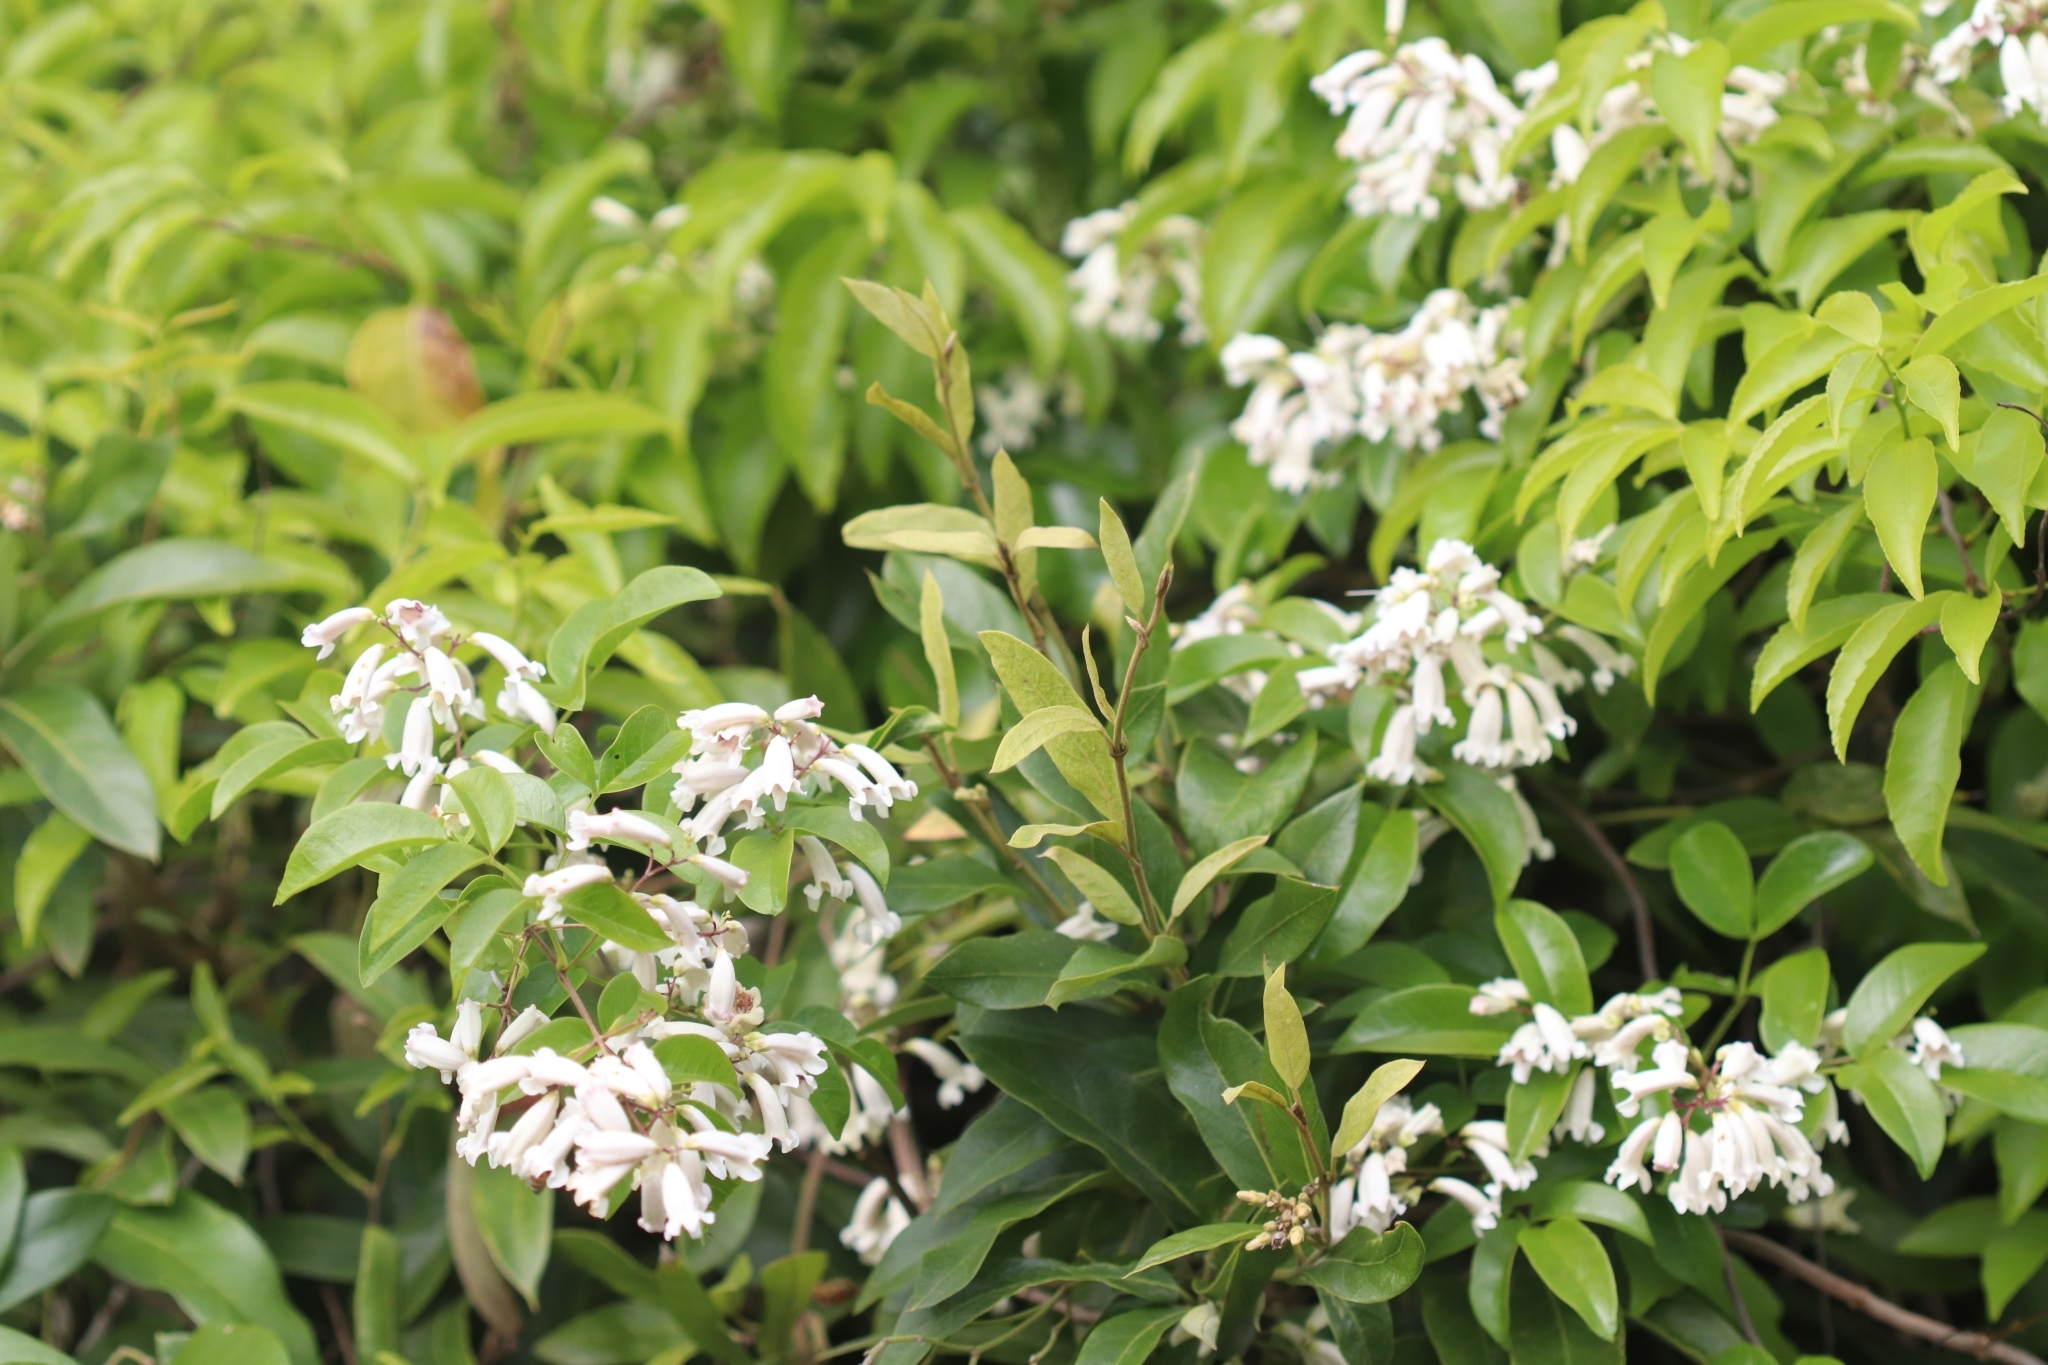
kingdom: Plantae
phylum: Tracheophyta
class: Magnoliopsida
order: Lamiales
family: Bignoniaceae
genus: Pandorea
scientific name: Pandorea pandorana
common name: Wonga-wonga-vine
